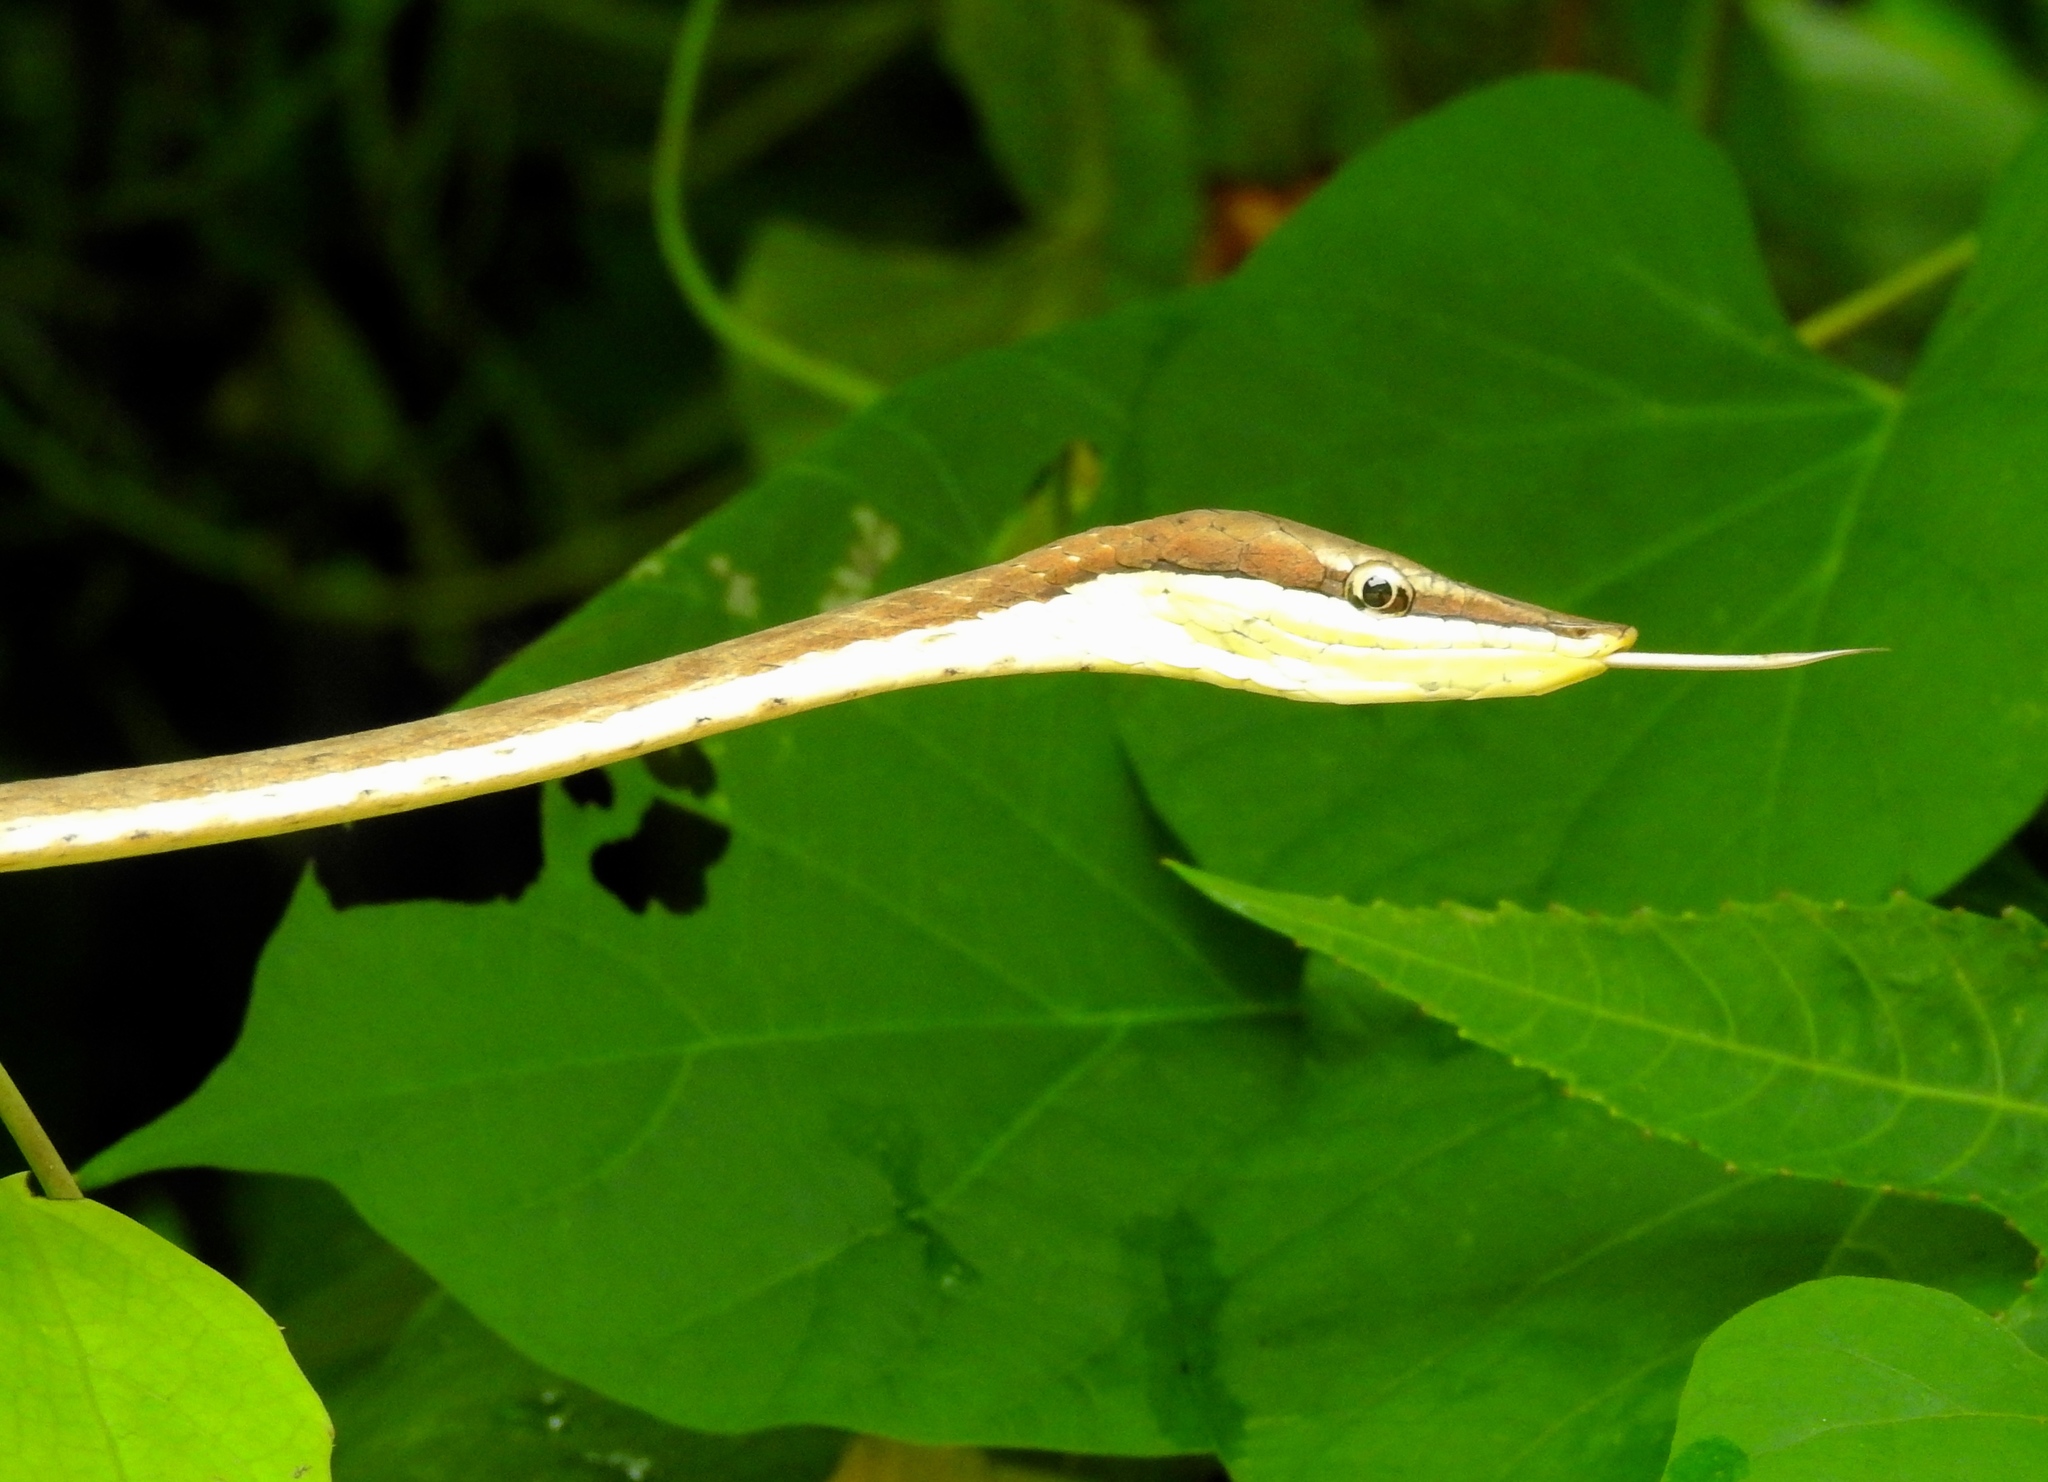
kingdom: Animalia
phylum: Chordata
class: Squamata
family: Colubridae
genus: Oxybelis
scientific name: Oxybelis microphthalmus
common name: Thrornscrub vine snake
